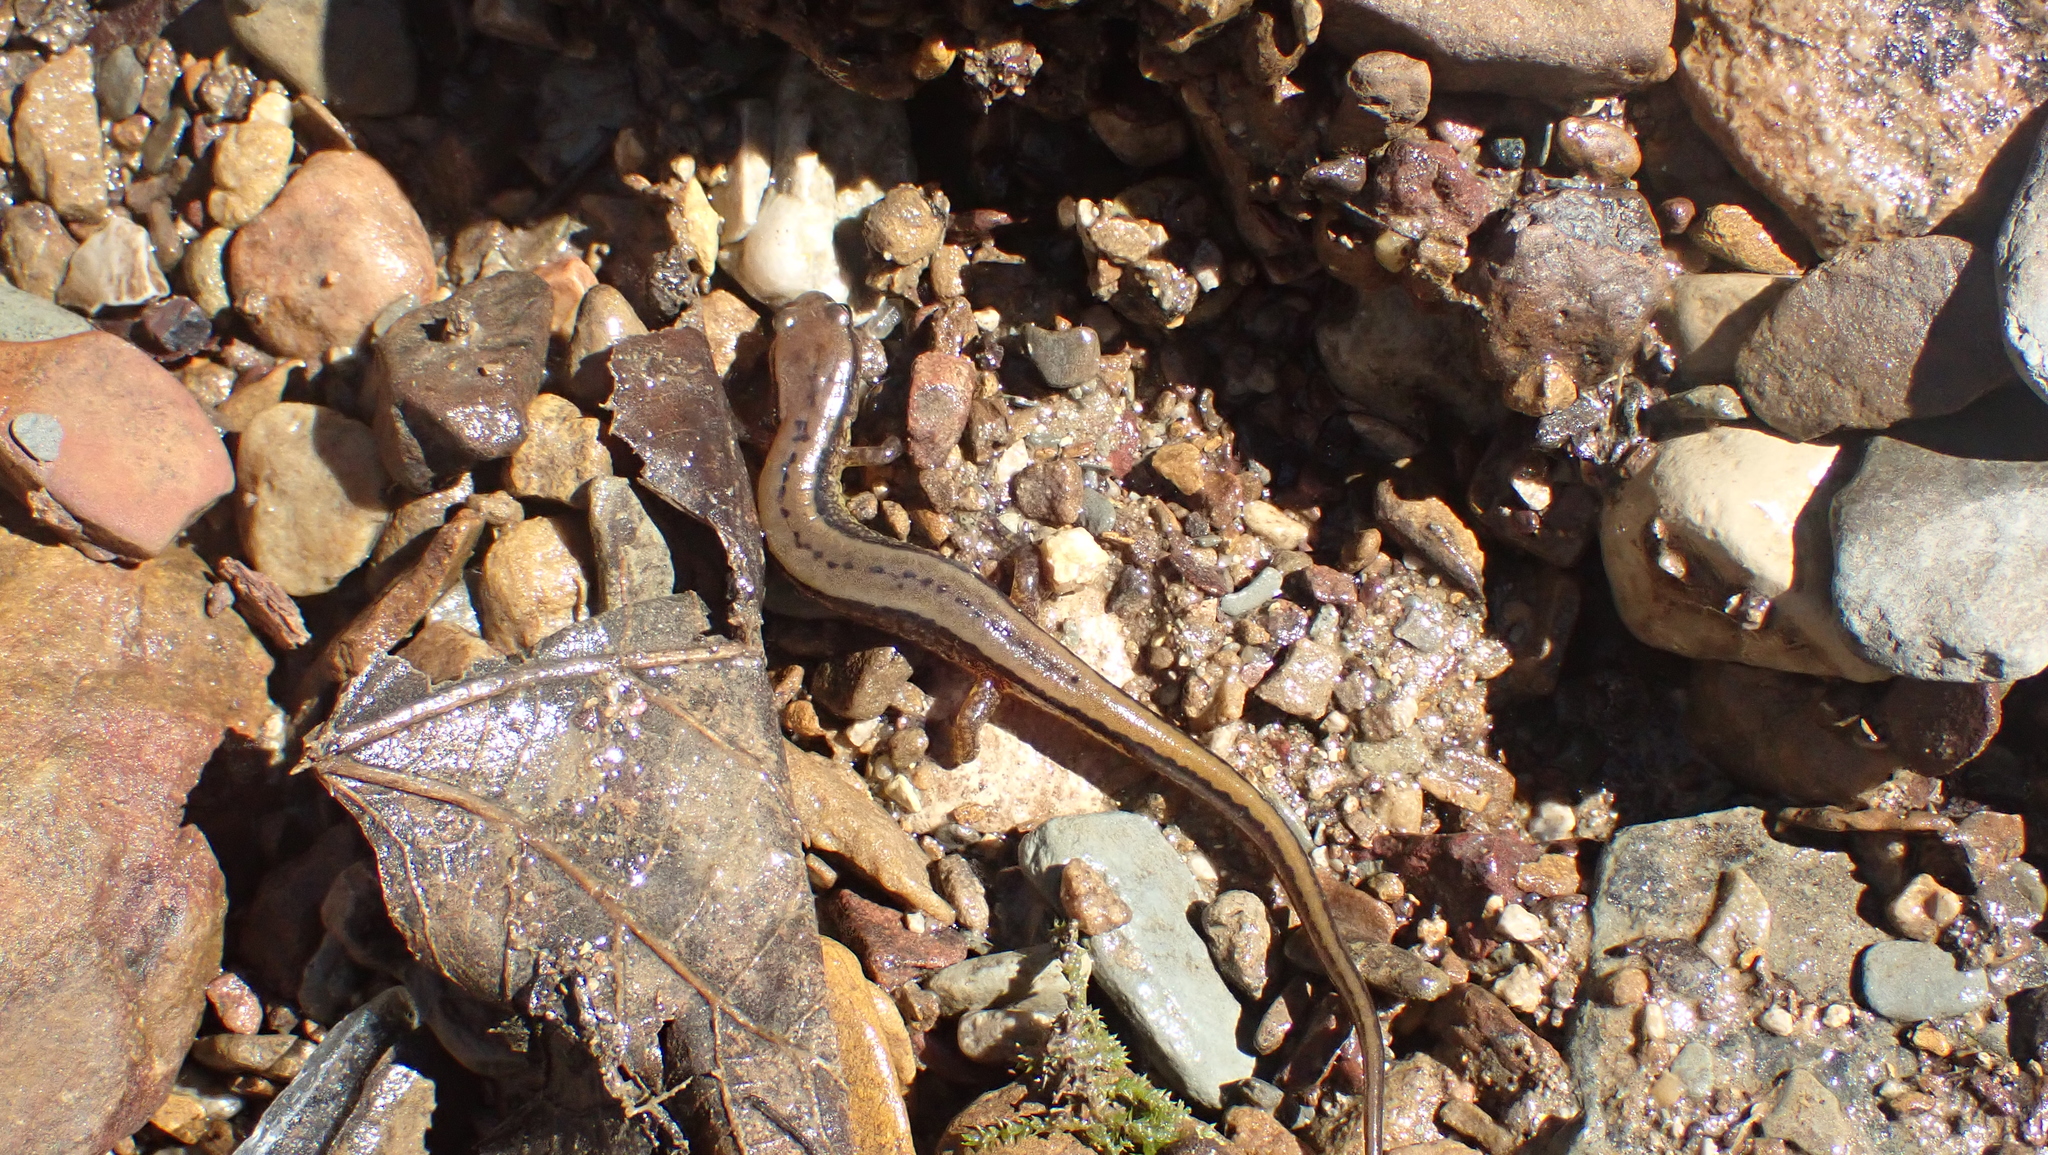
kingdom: Animalia
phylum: Chordata
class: Amphibia
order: Caudata
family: Plethodontidae
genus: Eurycea
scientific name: Eurycea cirrigera
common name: Southern two-lined salamander
